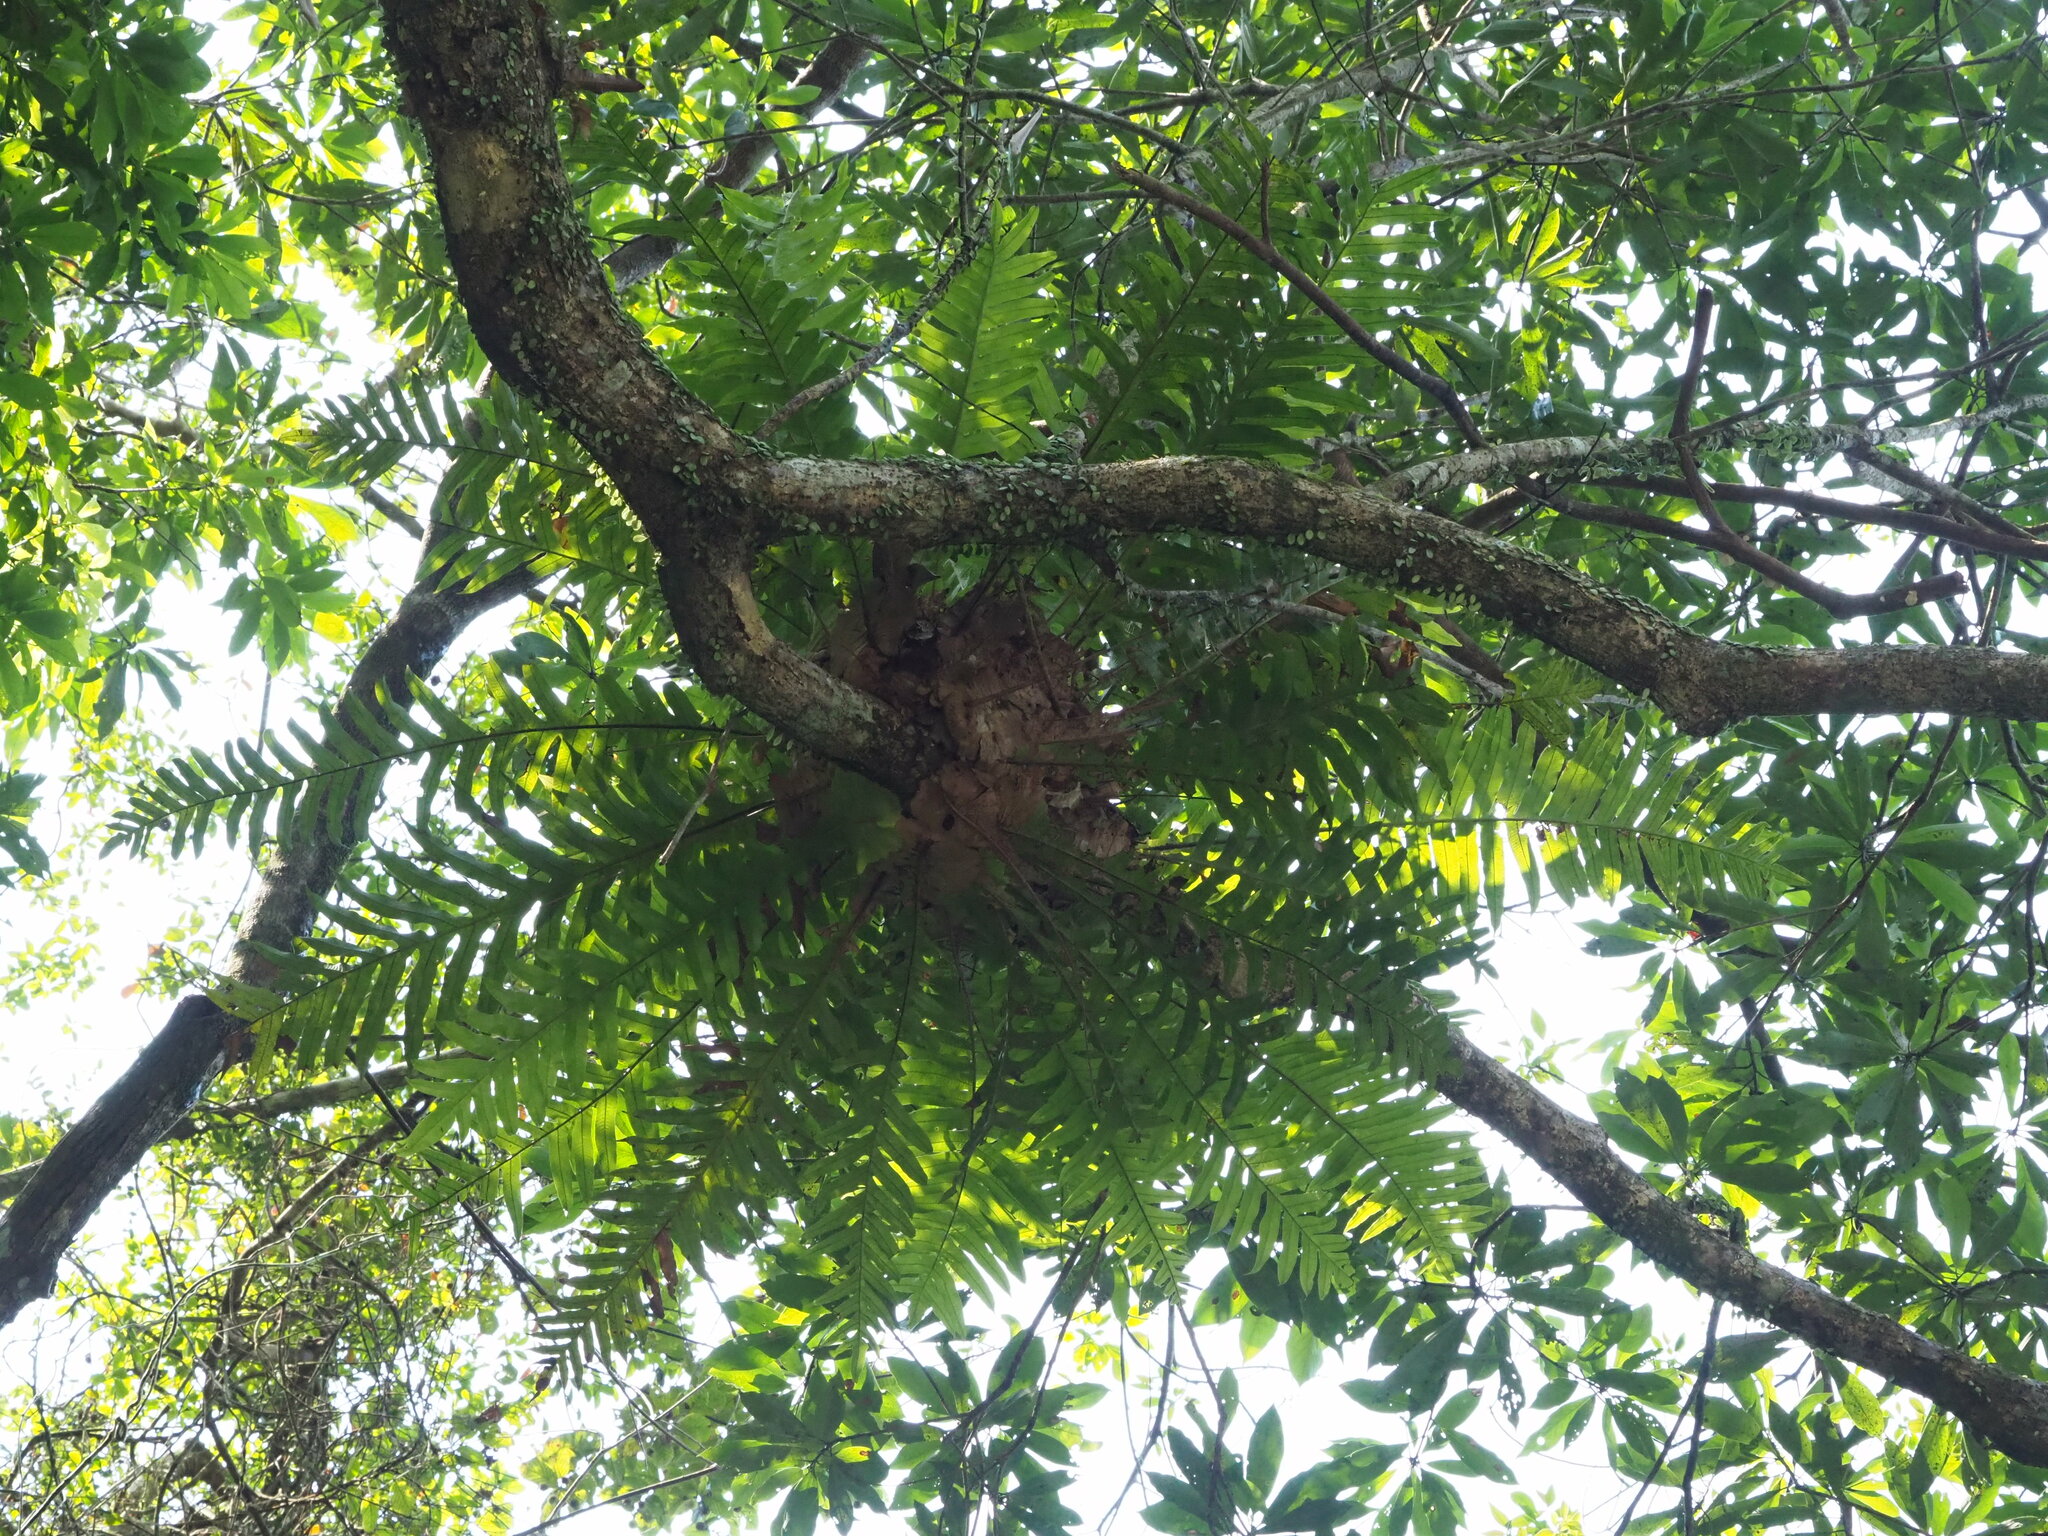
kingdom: Plantae
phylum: Tracheophyta
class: Polypodiopsida
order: Polypodiales
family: Polypodiaceae
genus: Drynaria
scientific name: Drynaria coronans
